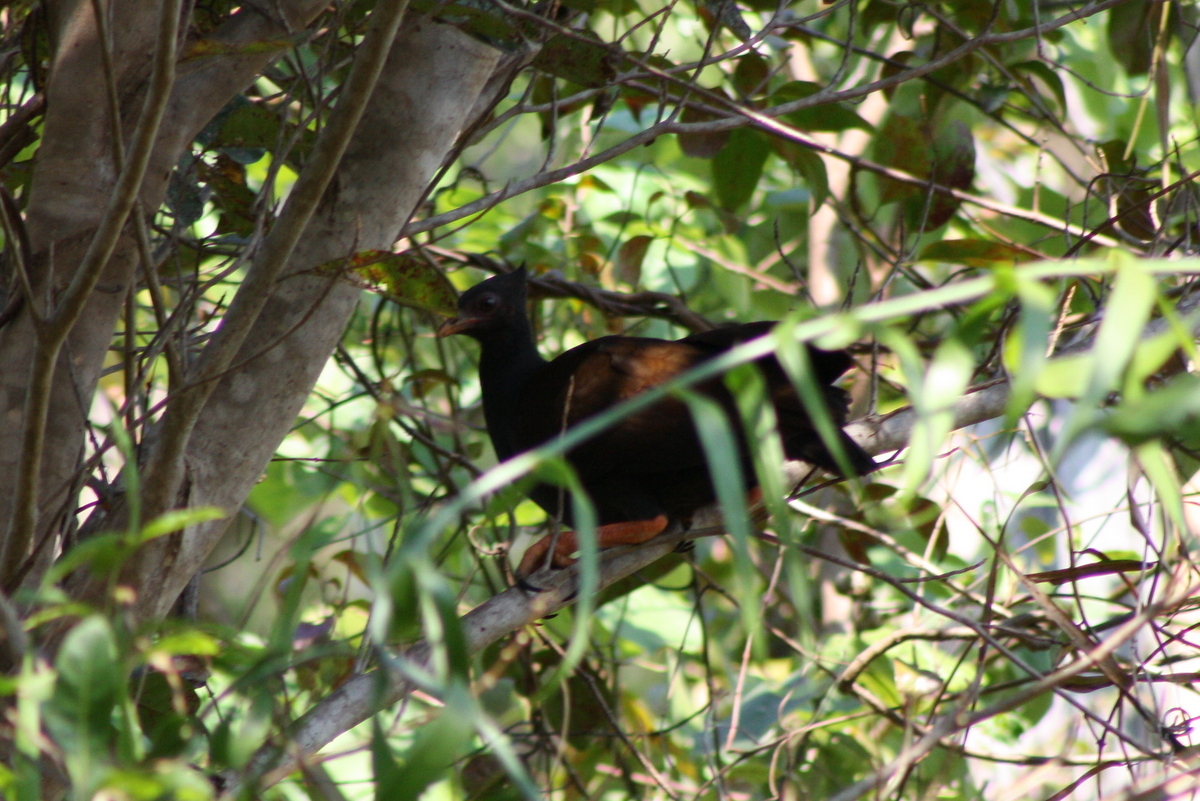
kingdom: Animalia
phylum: Chordata
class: Aves
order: Galliformes
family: Megapodiidae
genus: Megapodius
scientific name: Megapodius reinwardt
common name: Orange-footed scrubfowl
